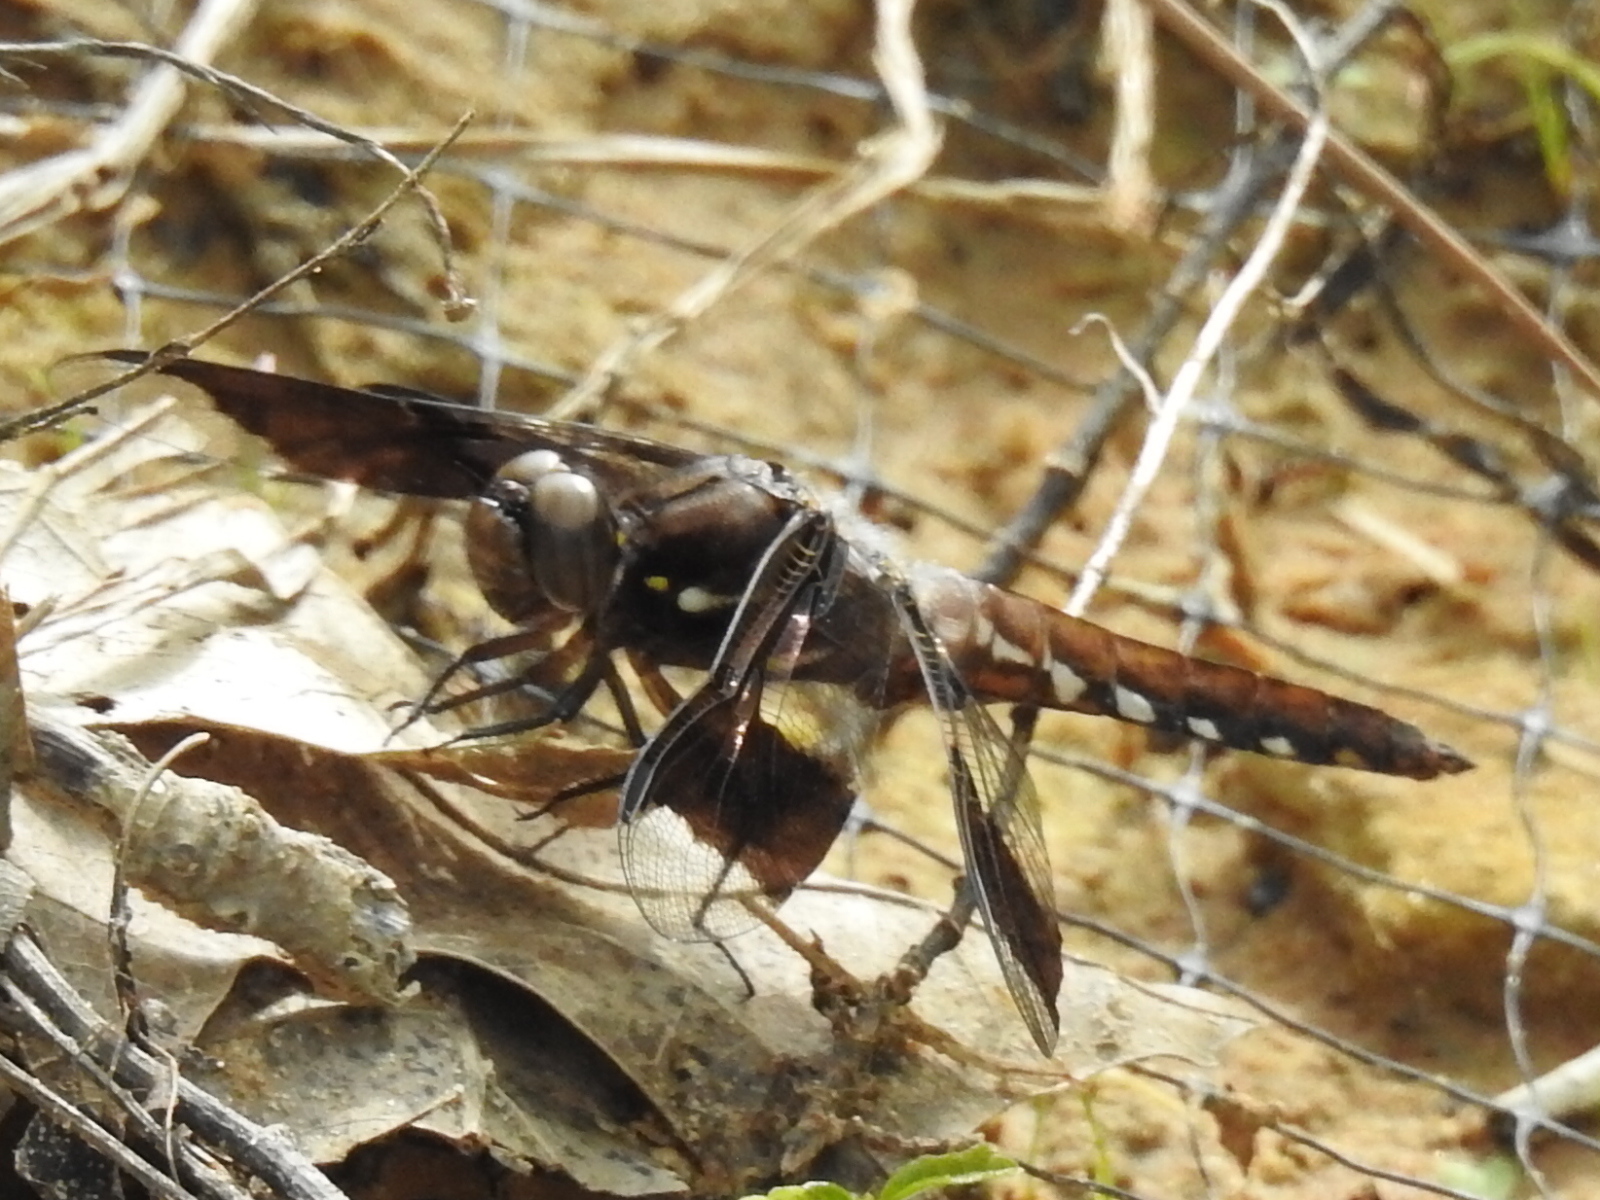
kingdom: Animalia
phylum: Arthropoda
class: Insecta
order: Odonata
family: Libellulidae
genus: Plathemis
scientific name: Plathemis lydia
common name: Common whitetail
